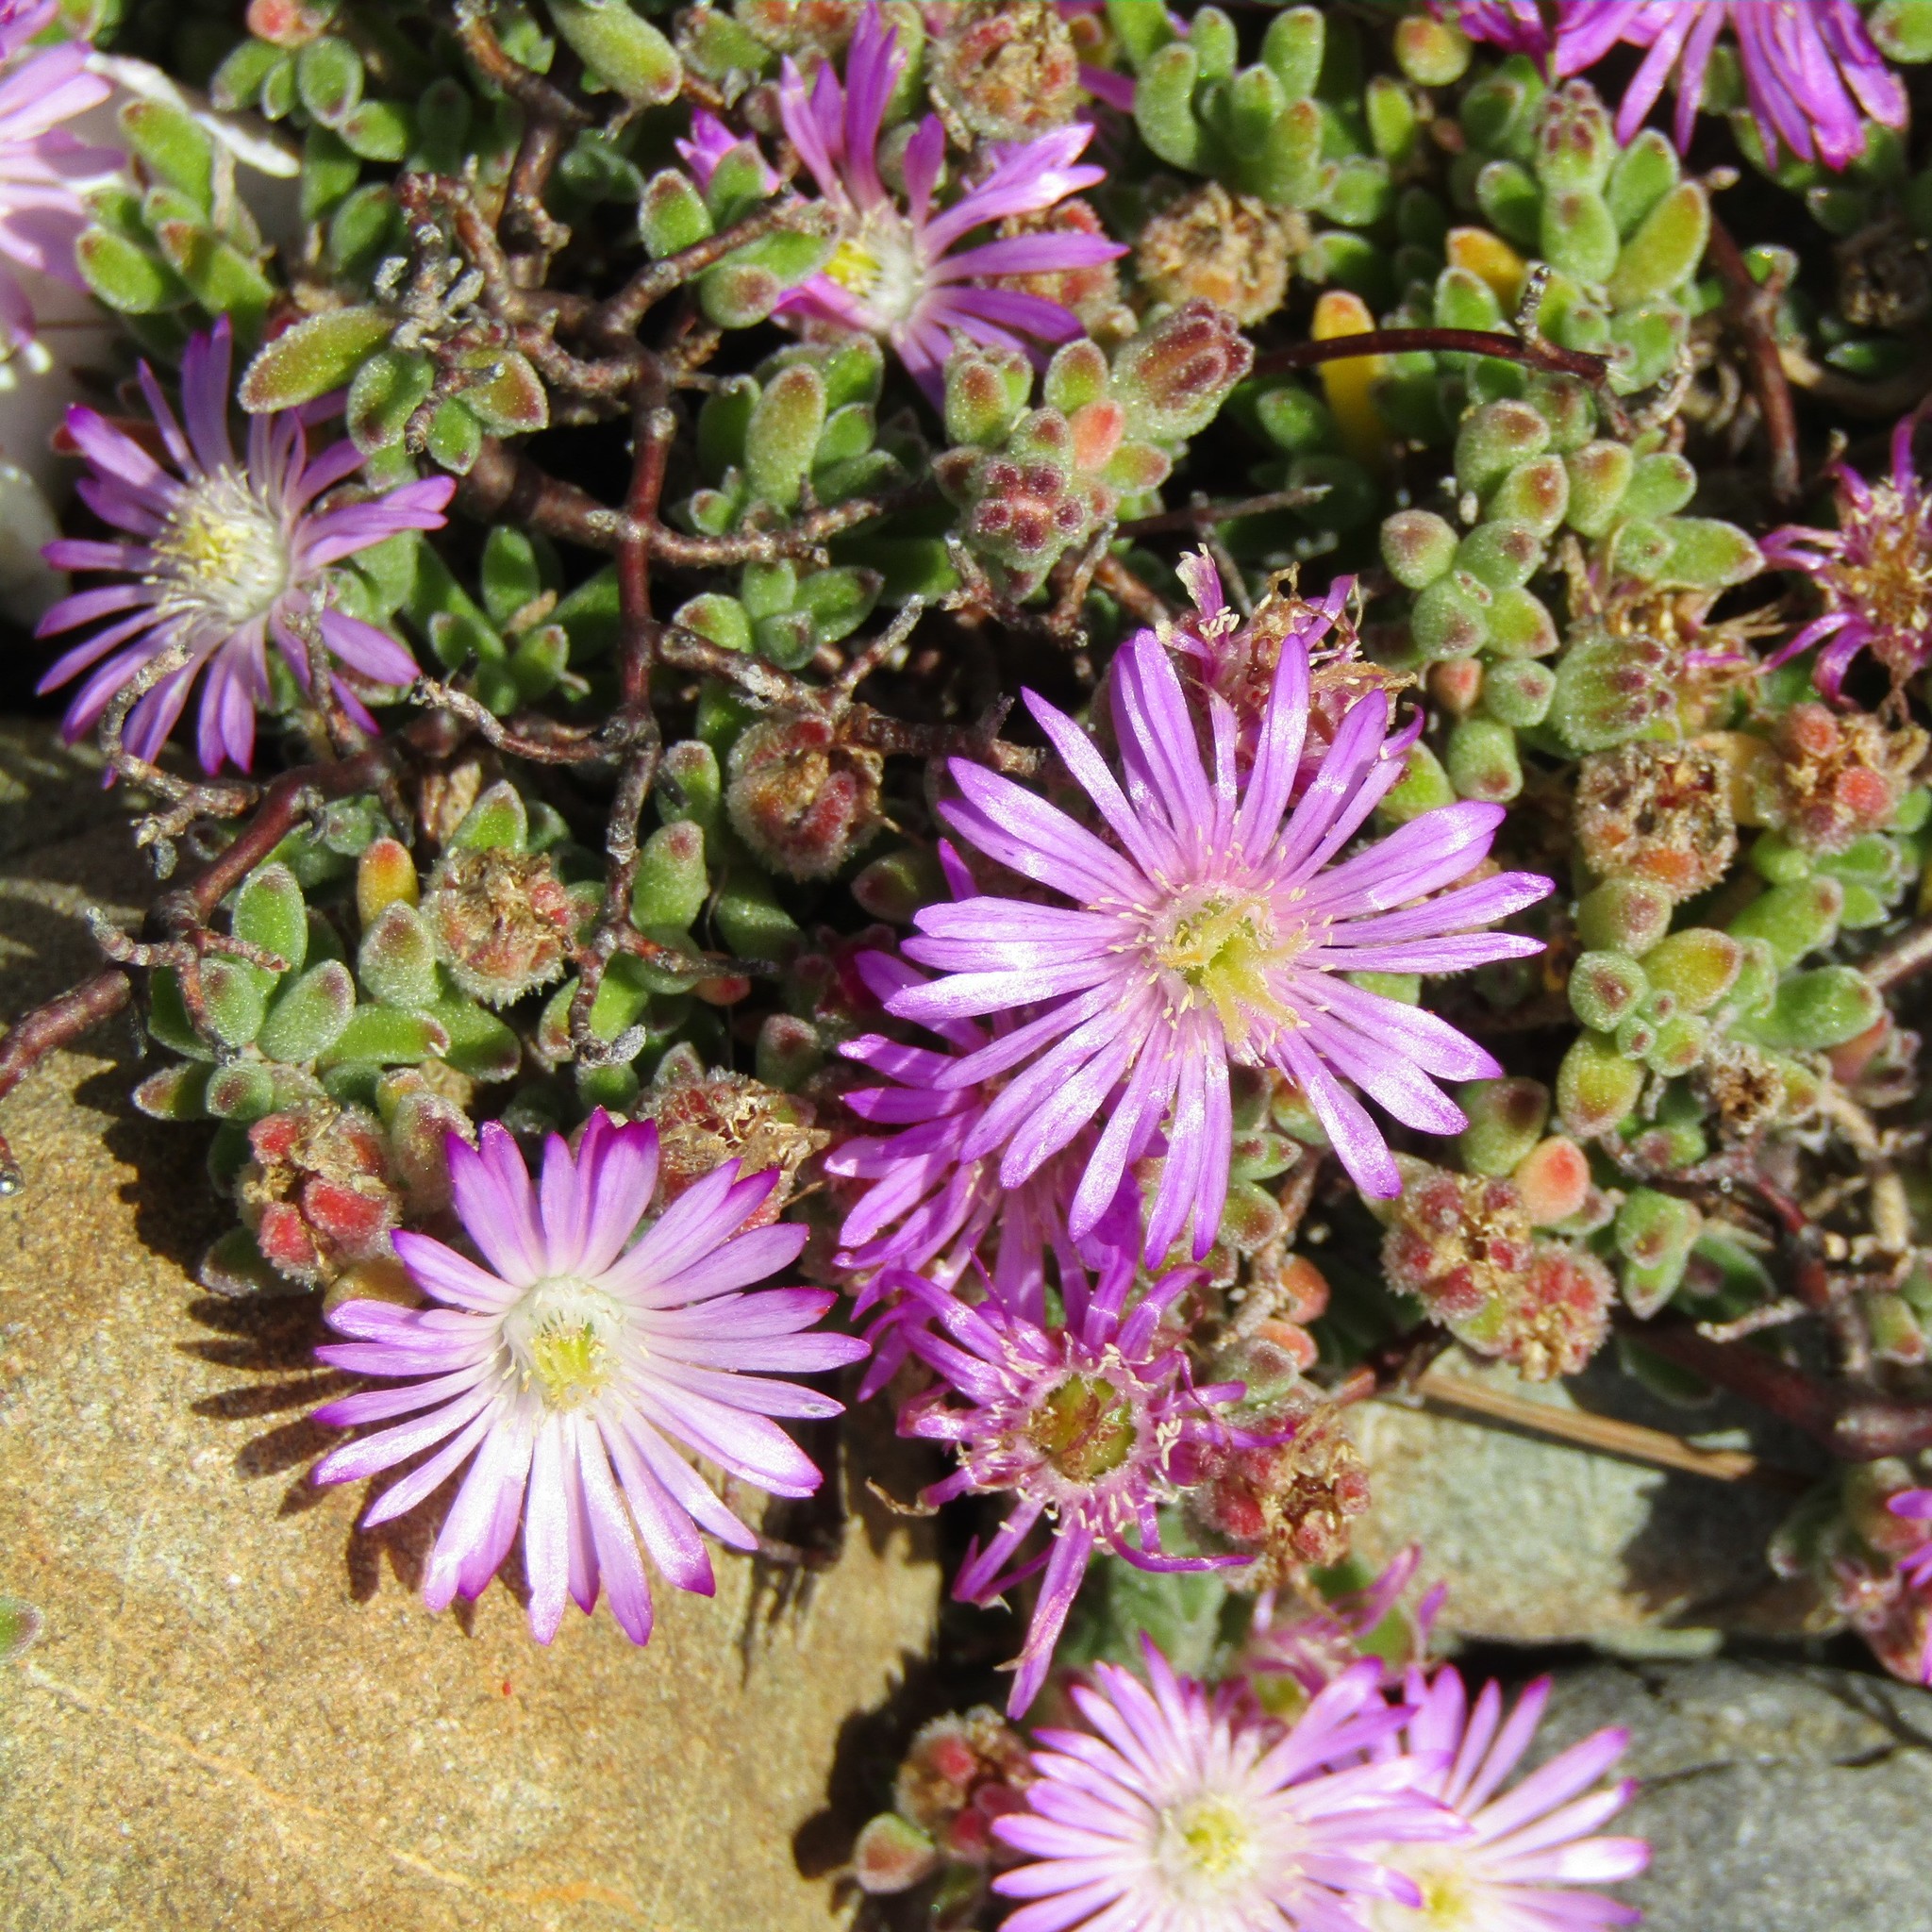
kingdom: Plantae
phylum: Tracheophyta
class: Magnoliopsida
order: Caryophyllales
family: Aizoaceae
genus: Drosanthemum
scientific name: Drosanthemum floribundum
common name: Pale dewplant
